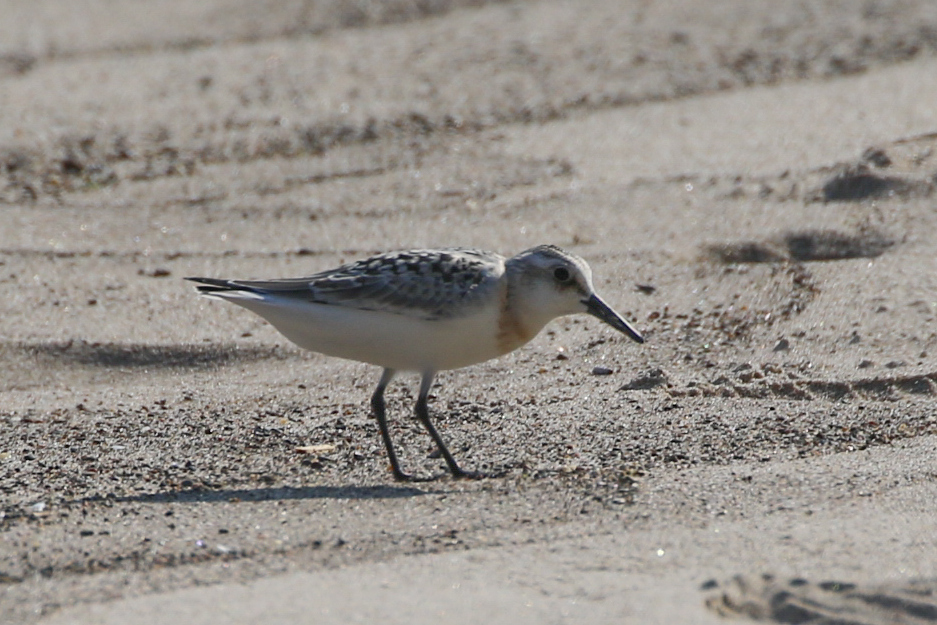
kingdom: Animalia
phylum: Chordata
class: Aves
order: Charadriiformes
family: Scolopacidae
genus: Calidris
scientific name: Calidris alba
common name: Sanderling
